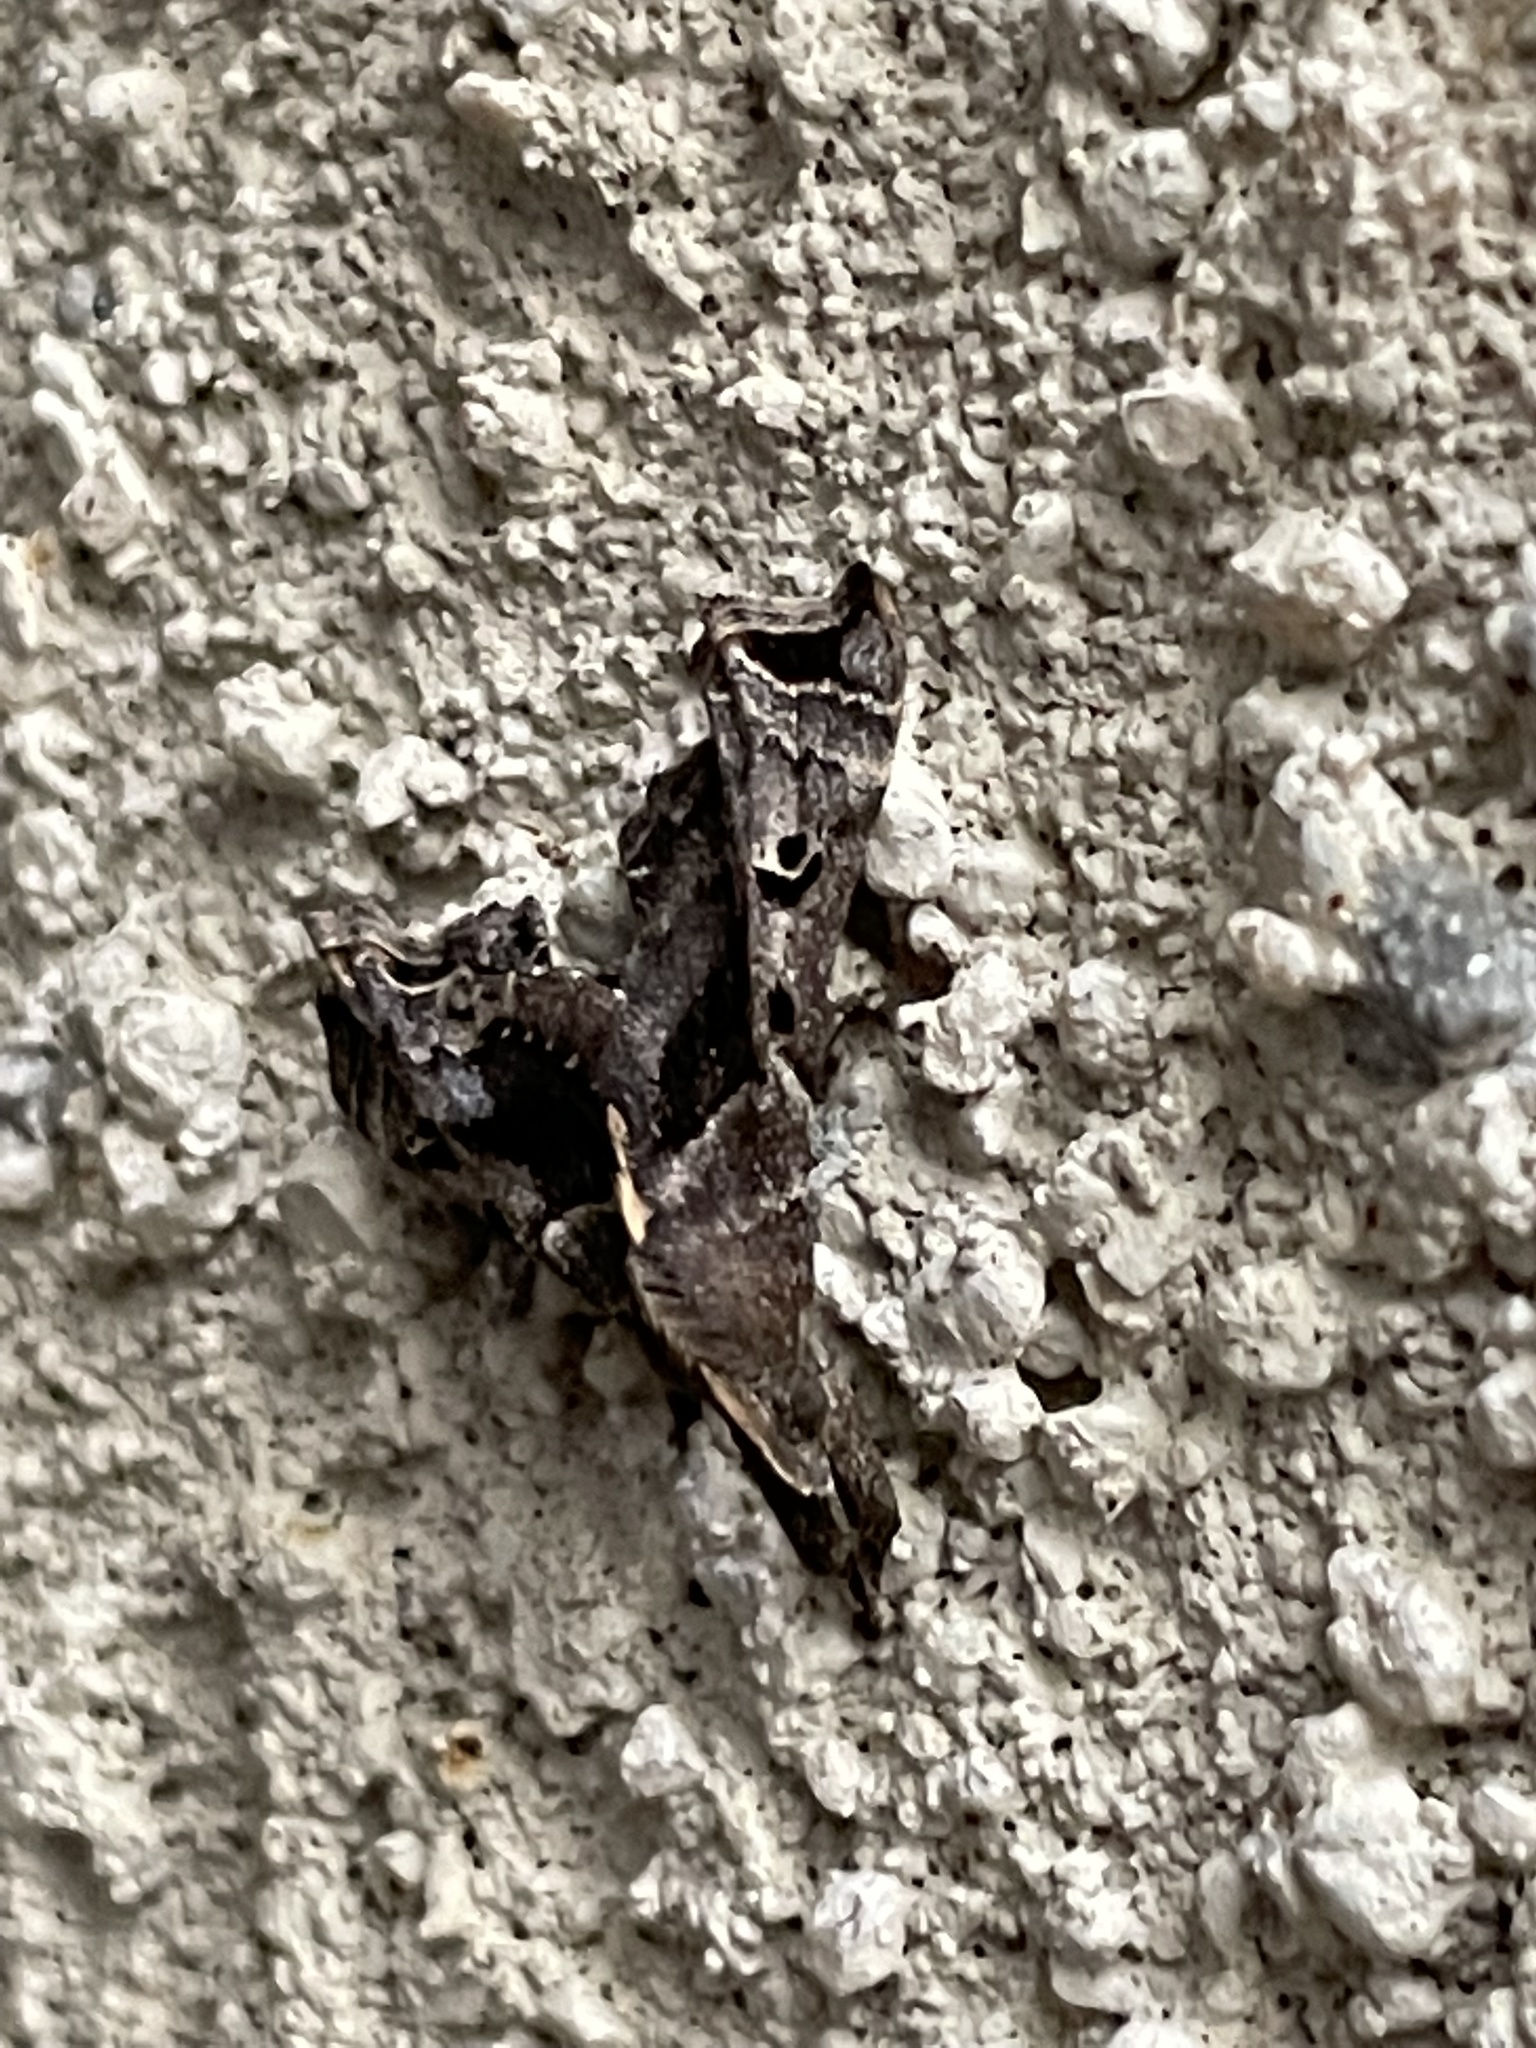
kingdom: Animalia
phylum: Arthropoda
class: Insecta
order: Lepidoptera
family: Erebidae
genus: Palthis
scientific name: Palthis asopialis
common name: Faint-spotted palthis moth
